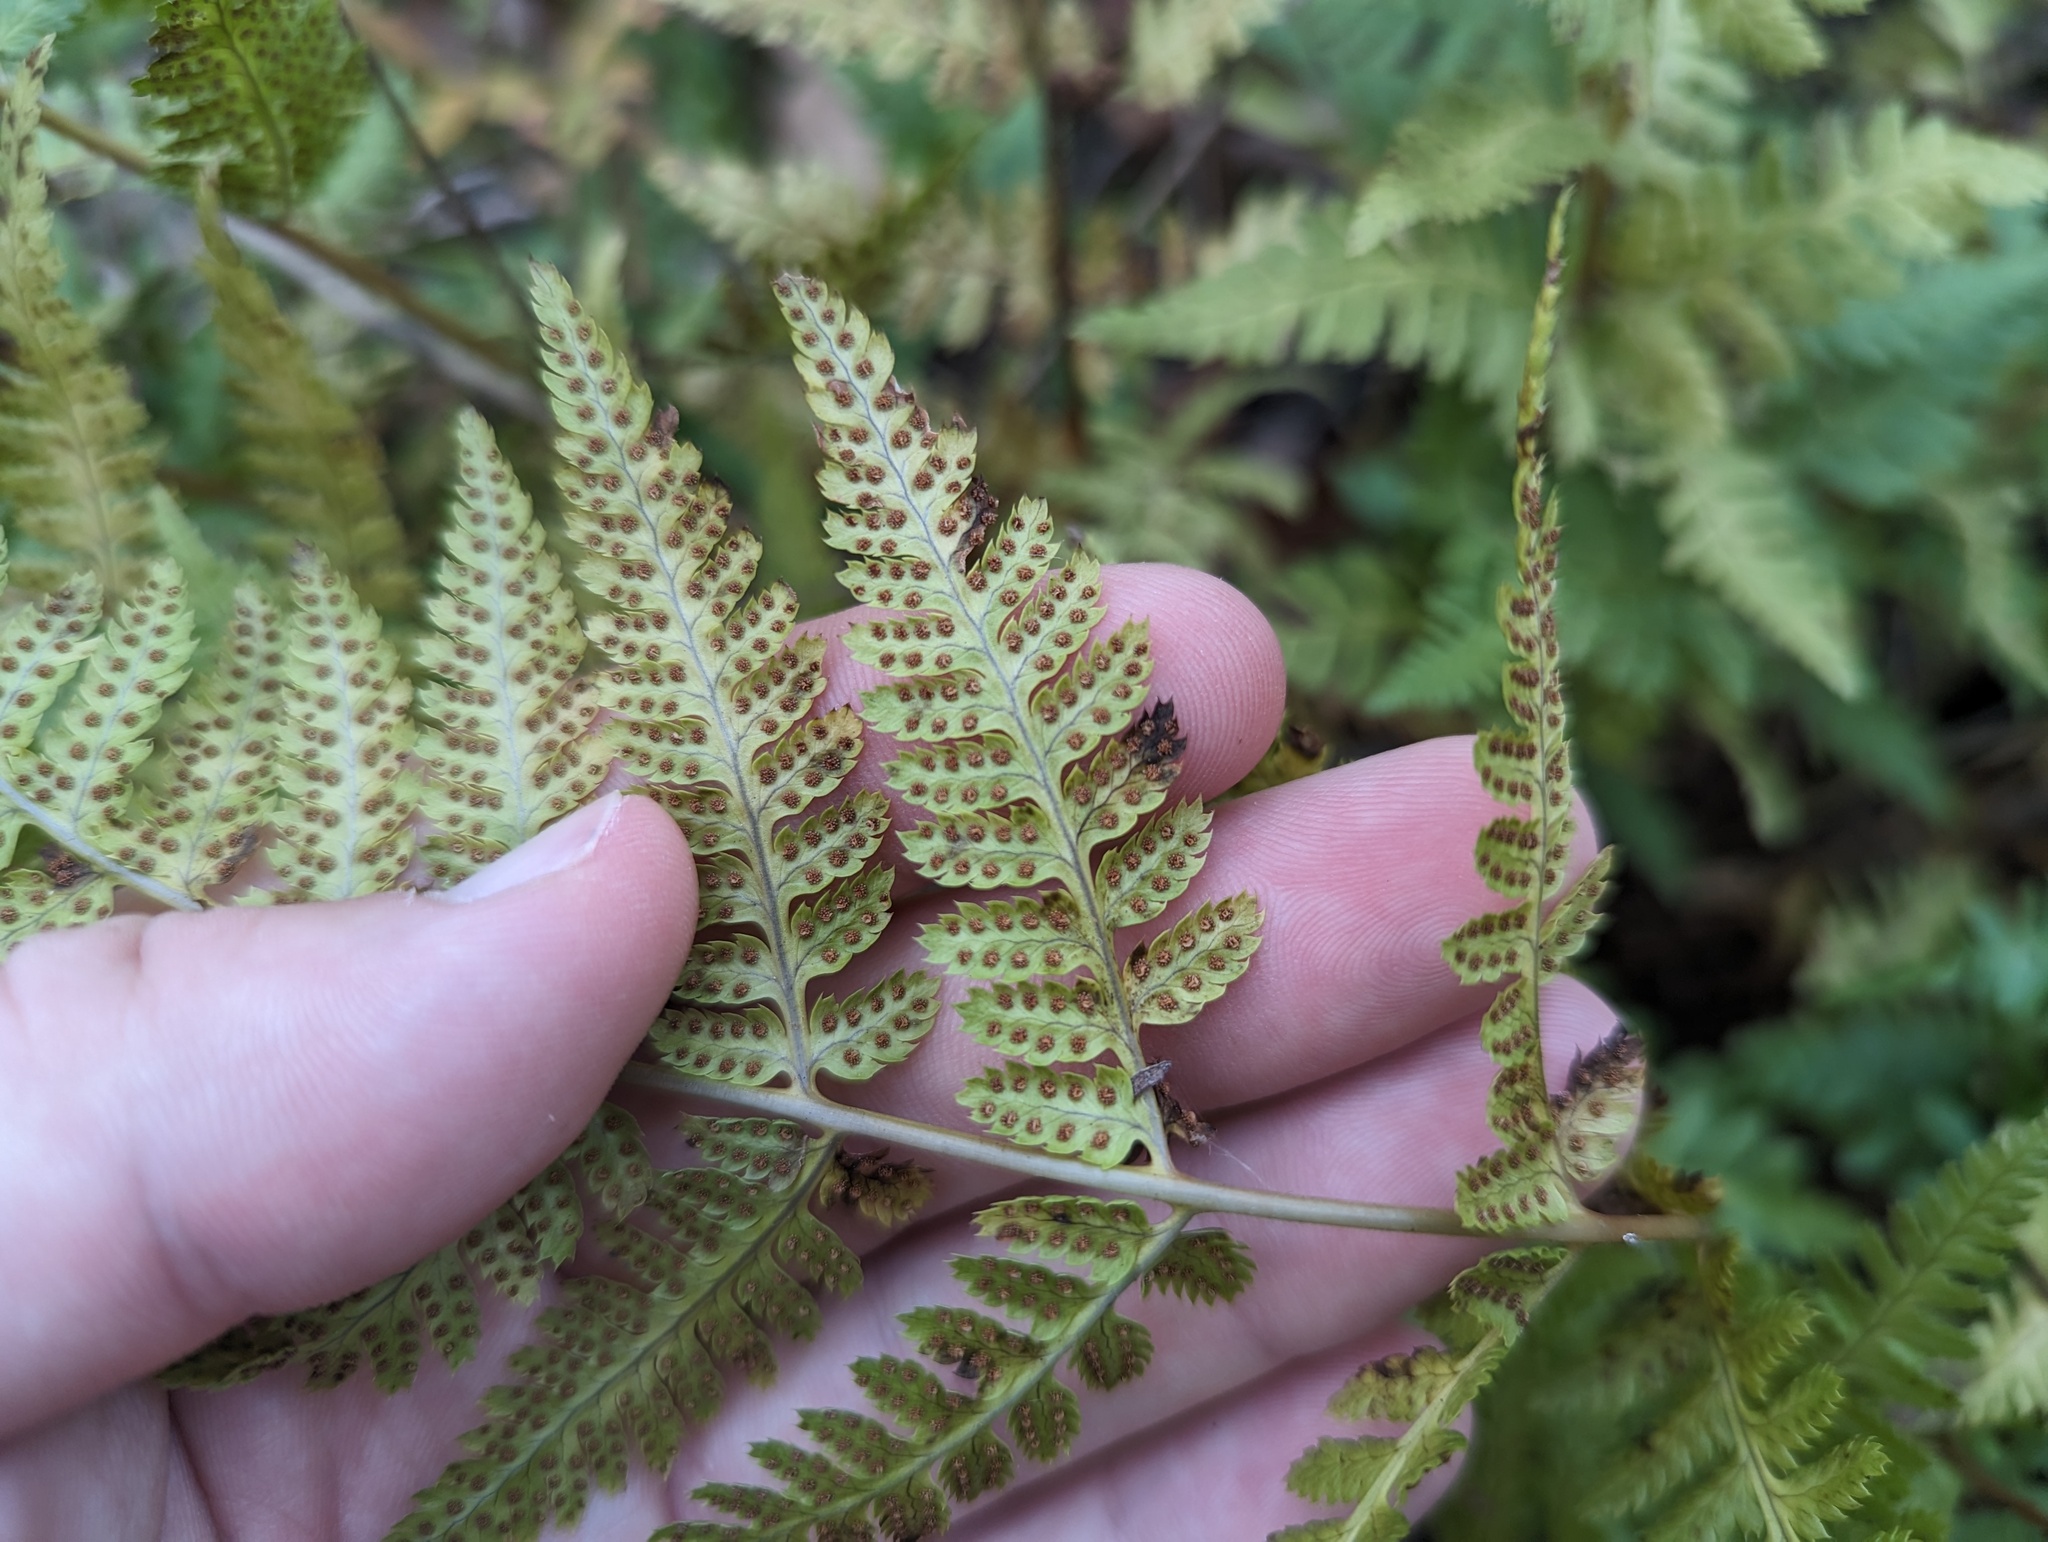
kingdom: Plantae
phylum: Tracheophyta
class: Polypodiopsida
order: Polypodiales
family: Dryopteridaceae
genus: Dryopteris
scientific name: Dryopteris carthusiana
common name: Narrow buckler-fern
